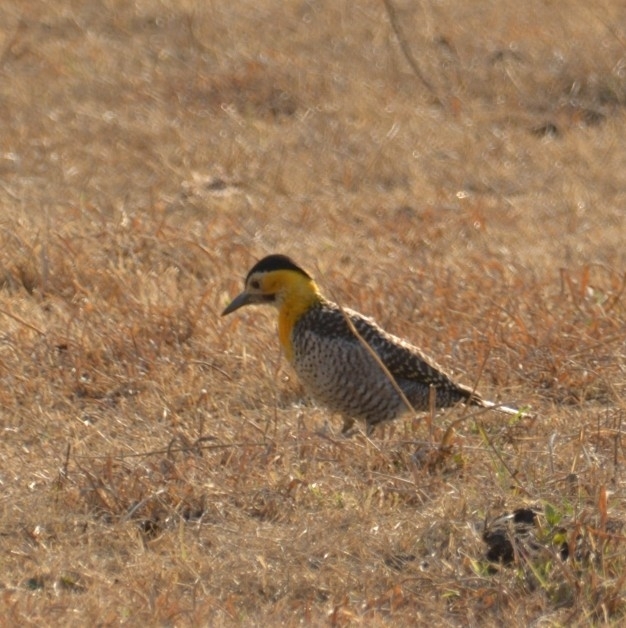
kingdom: Animalia
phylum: Chordata
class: Aves
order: Piciformes
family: Picidae
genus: Colaptes
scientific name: Colaptes campestris
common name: Campo flicker
